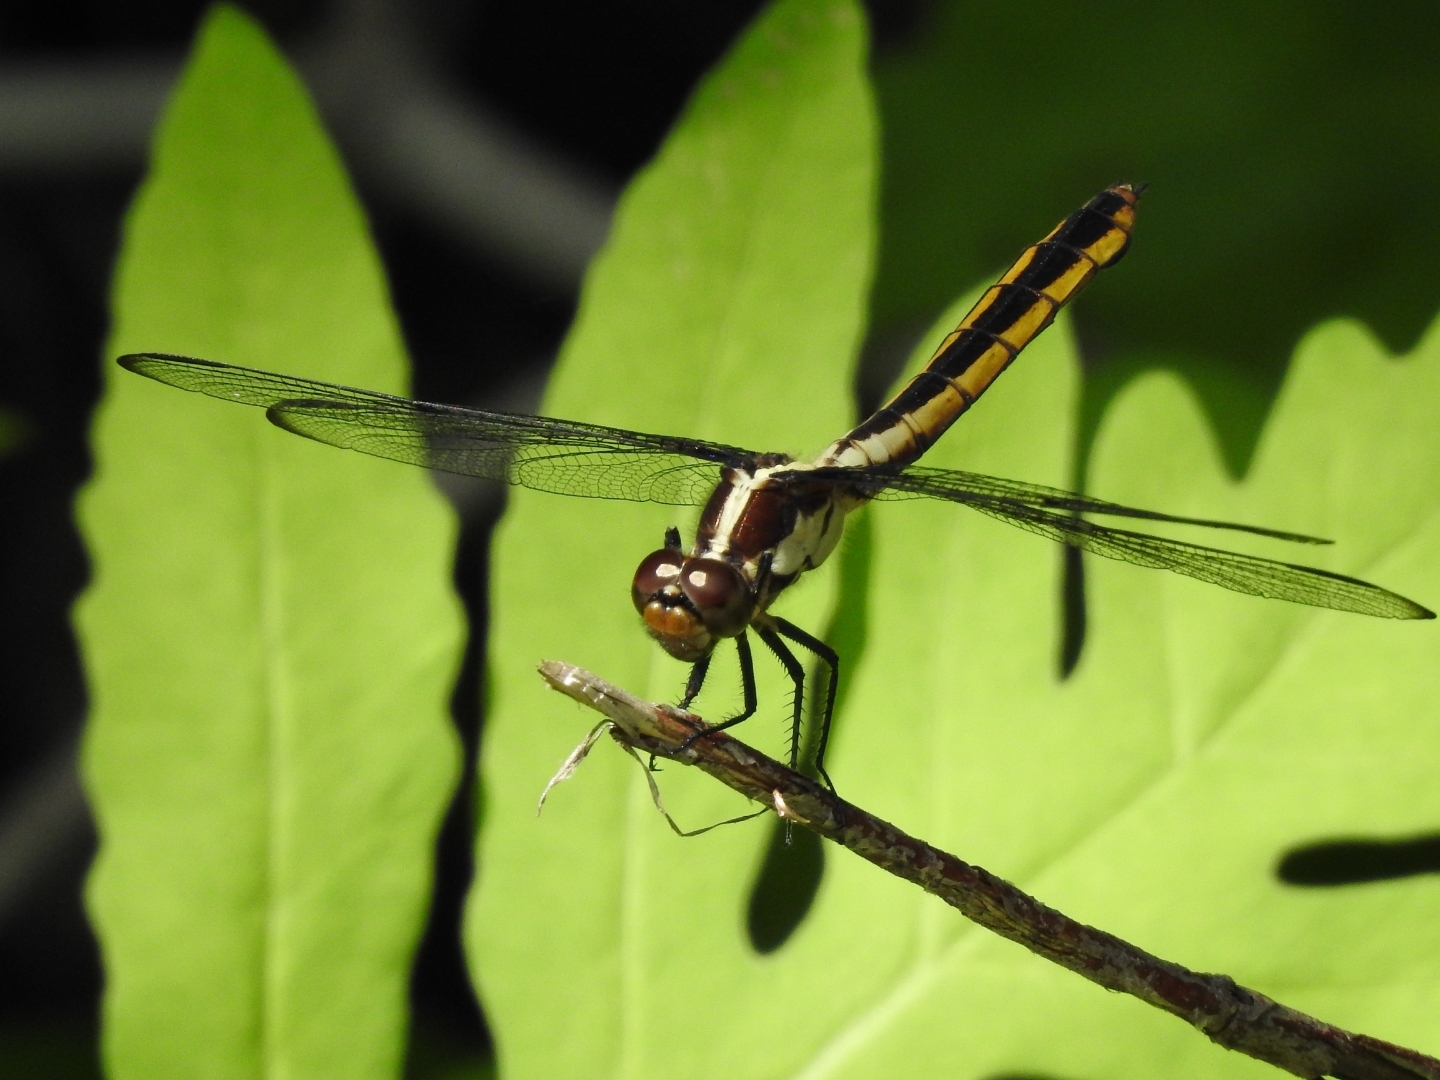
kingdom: Animalia
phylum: Arthropoda
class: Insecta
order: Odonata
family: Libellulidae
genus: Libellula
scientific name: Libellula incesta
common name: Slaty skimmer
